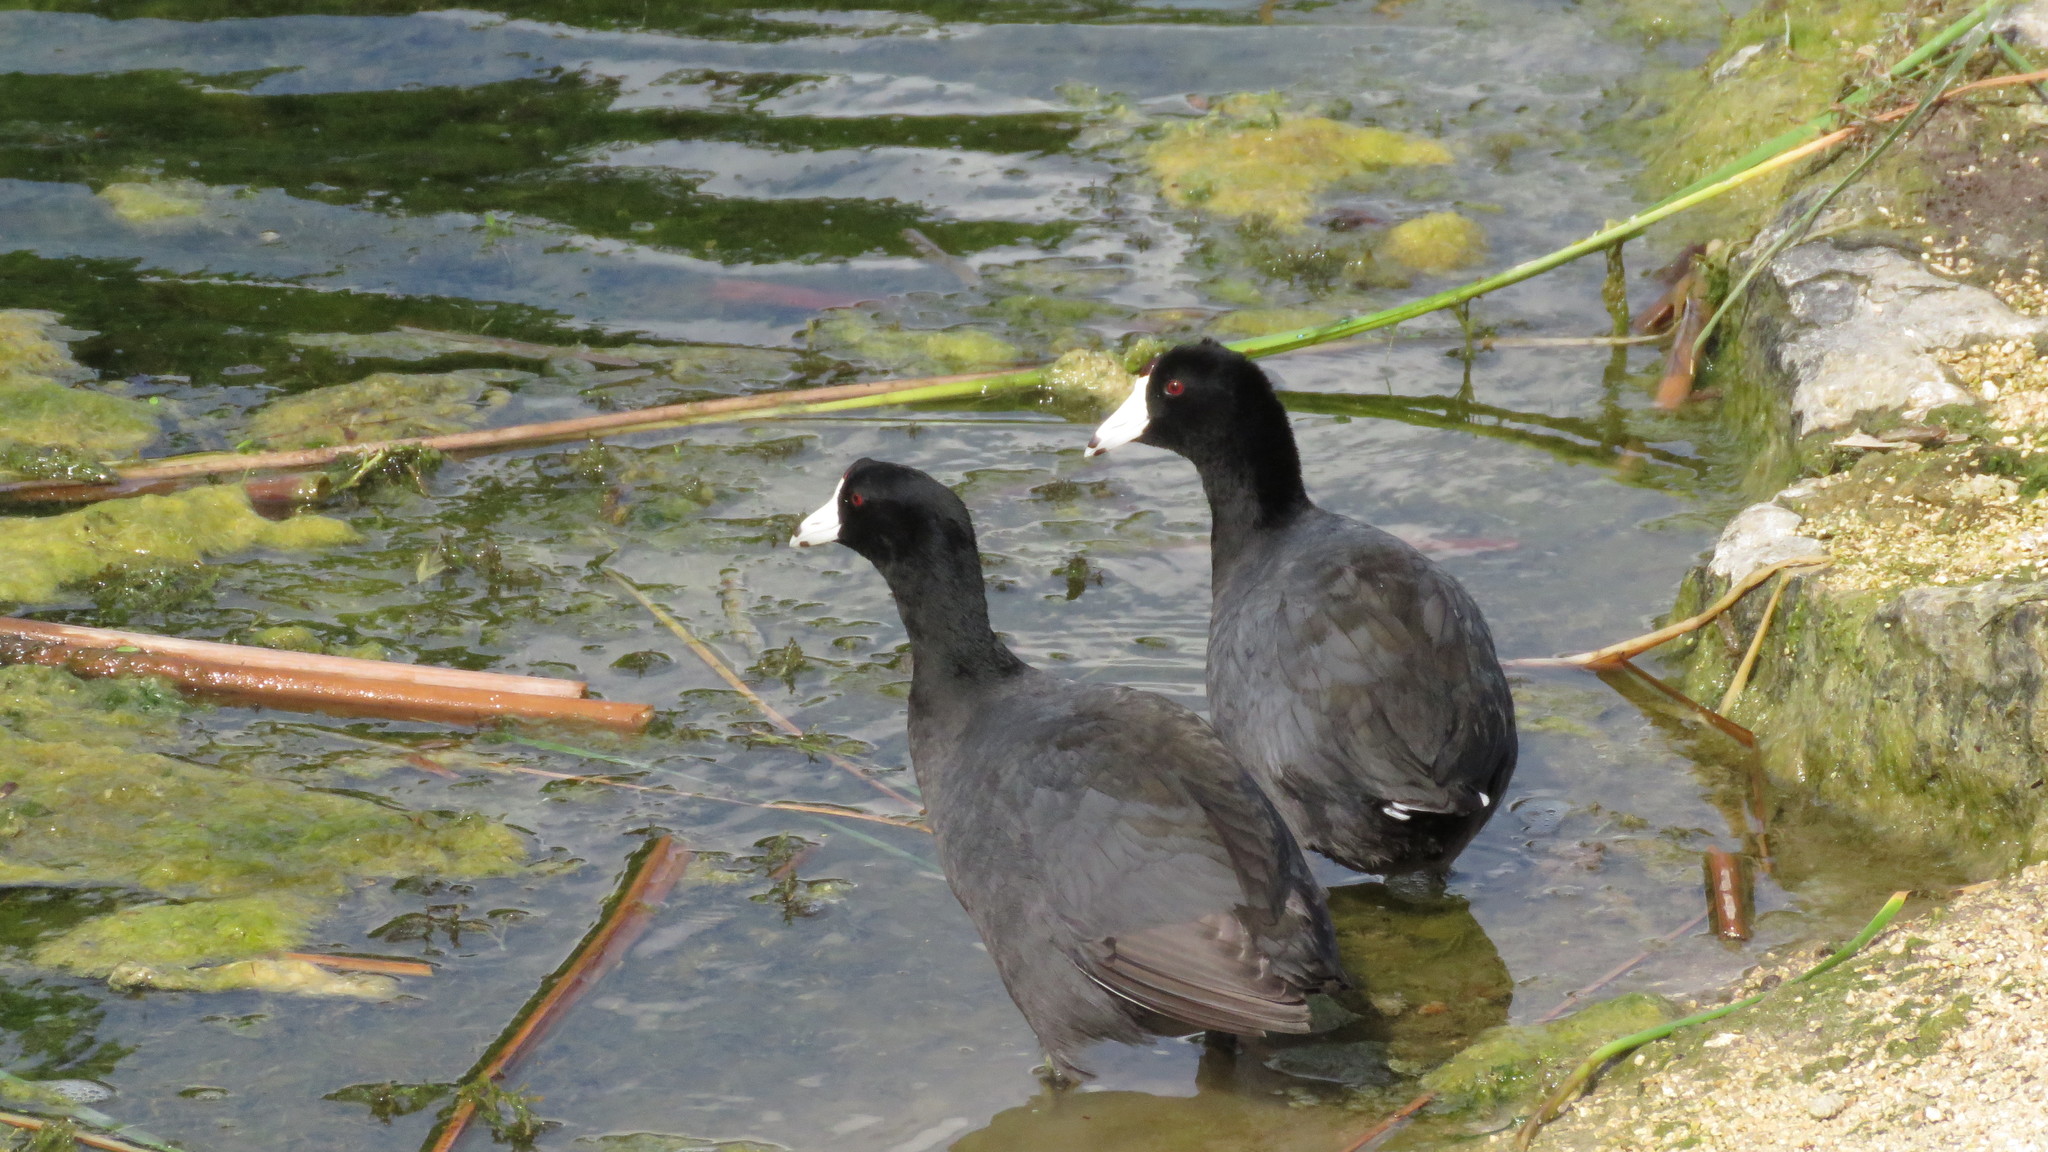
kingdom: Animalia
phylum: Chordata
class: Aves
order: Gruiformes
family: Rallidae
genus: Fulica
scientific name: Fulica americana
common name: American coot
